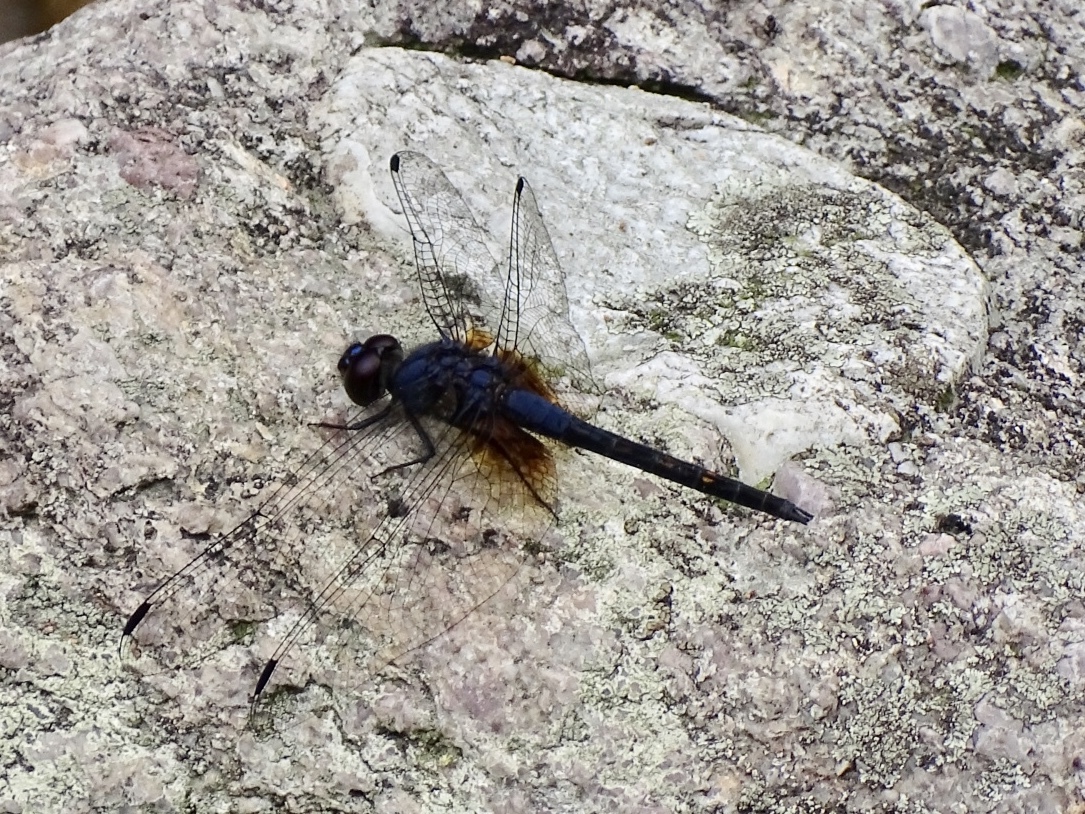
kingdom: Animalia
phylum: Arthropoda
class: Insecta
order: Odonata
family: Libellulidae
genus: Trithemis
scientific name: Trithemis festiva
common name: Indigo dropwing
